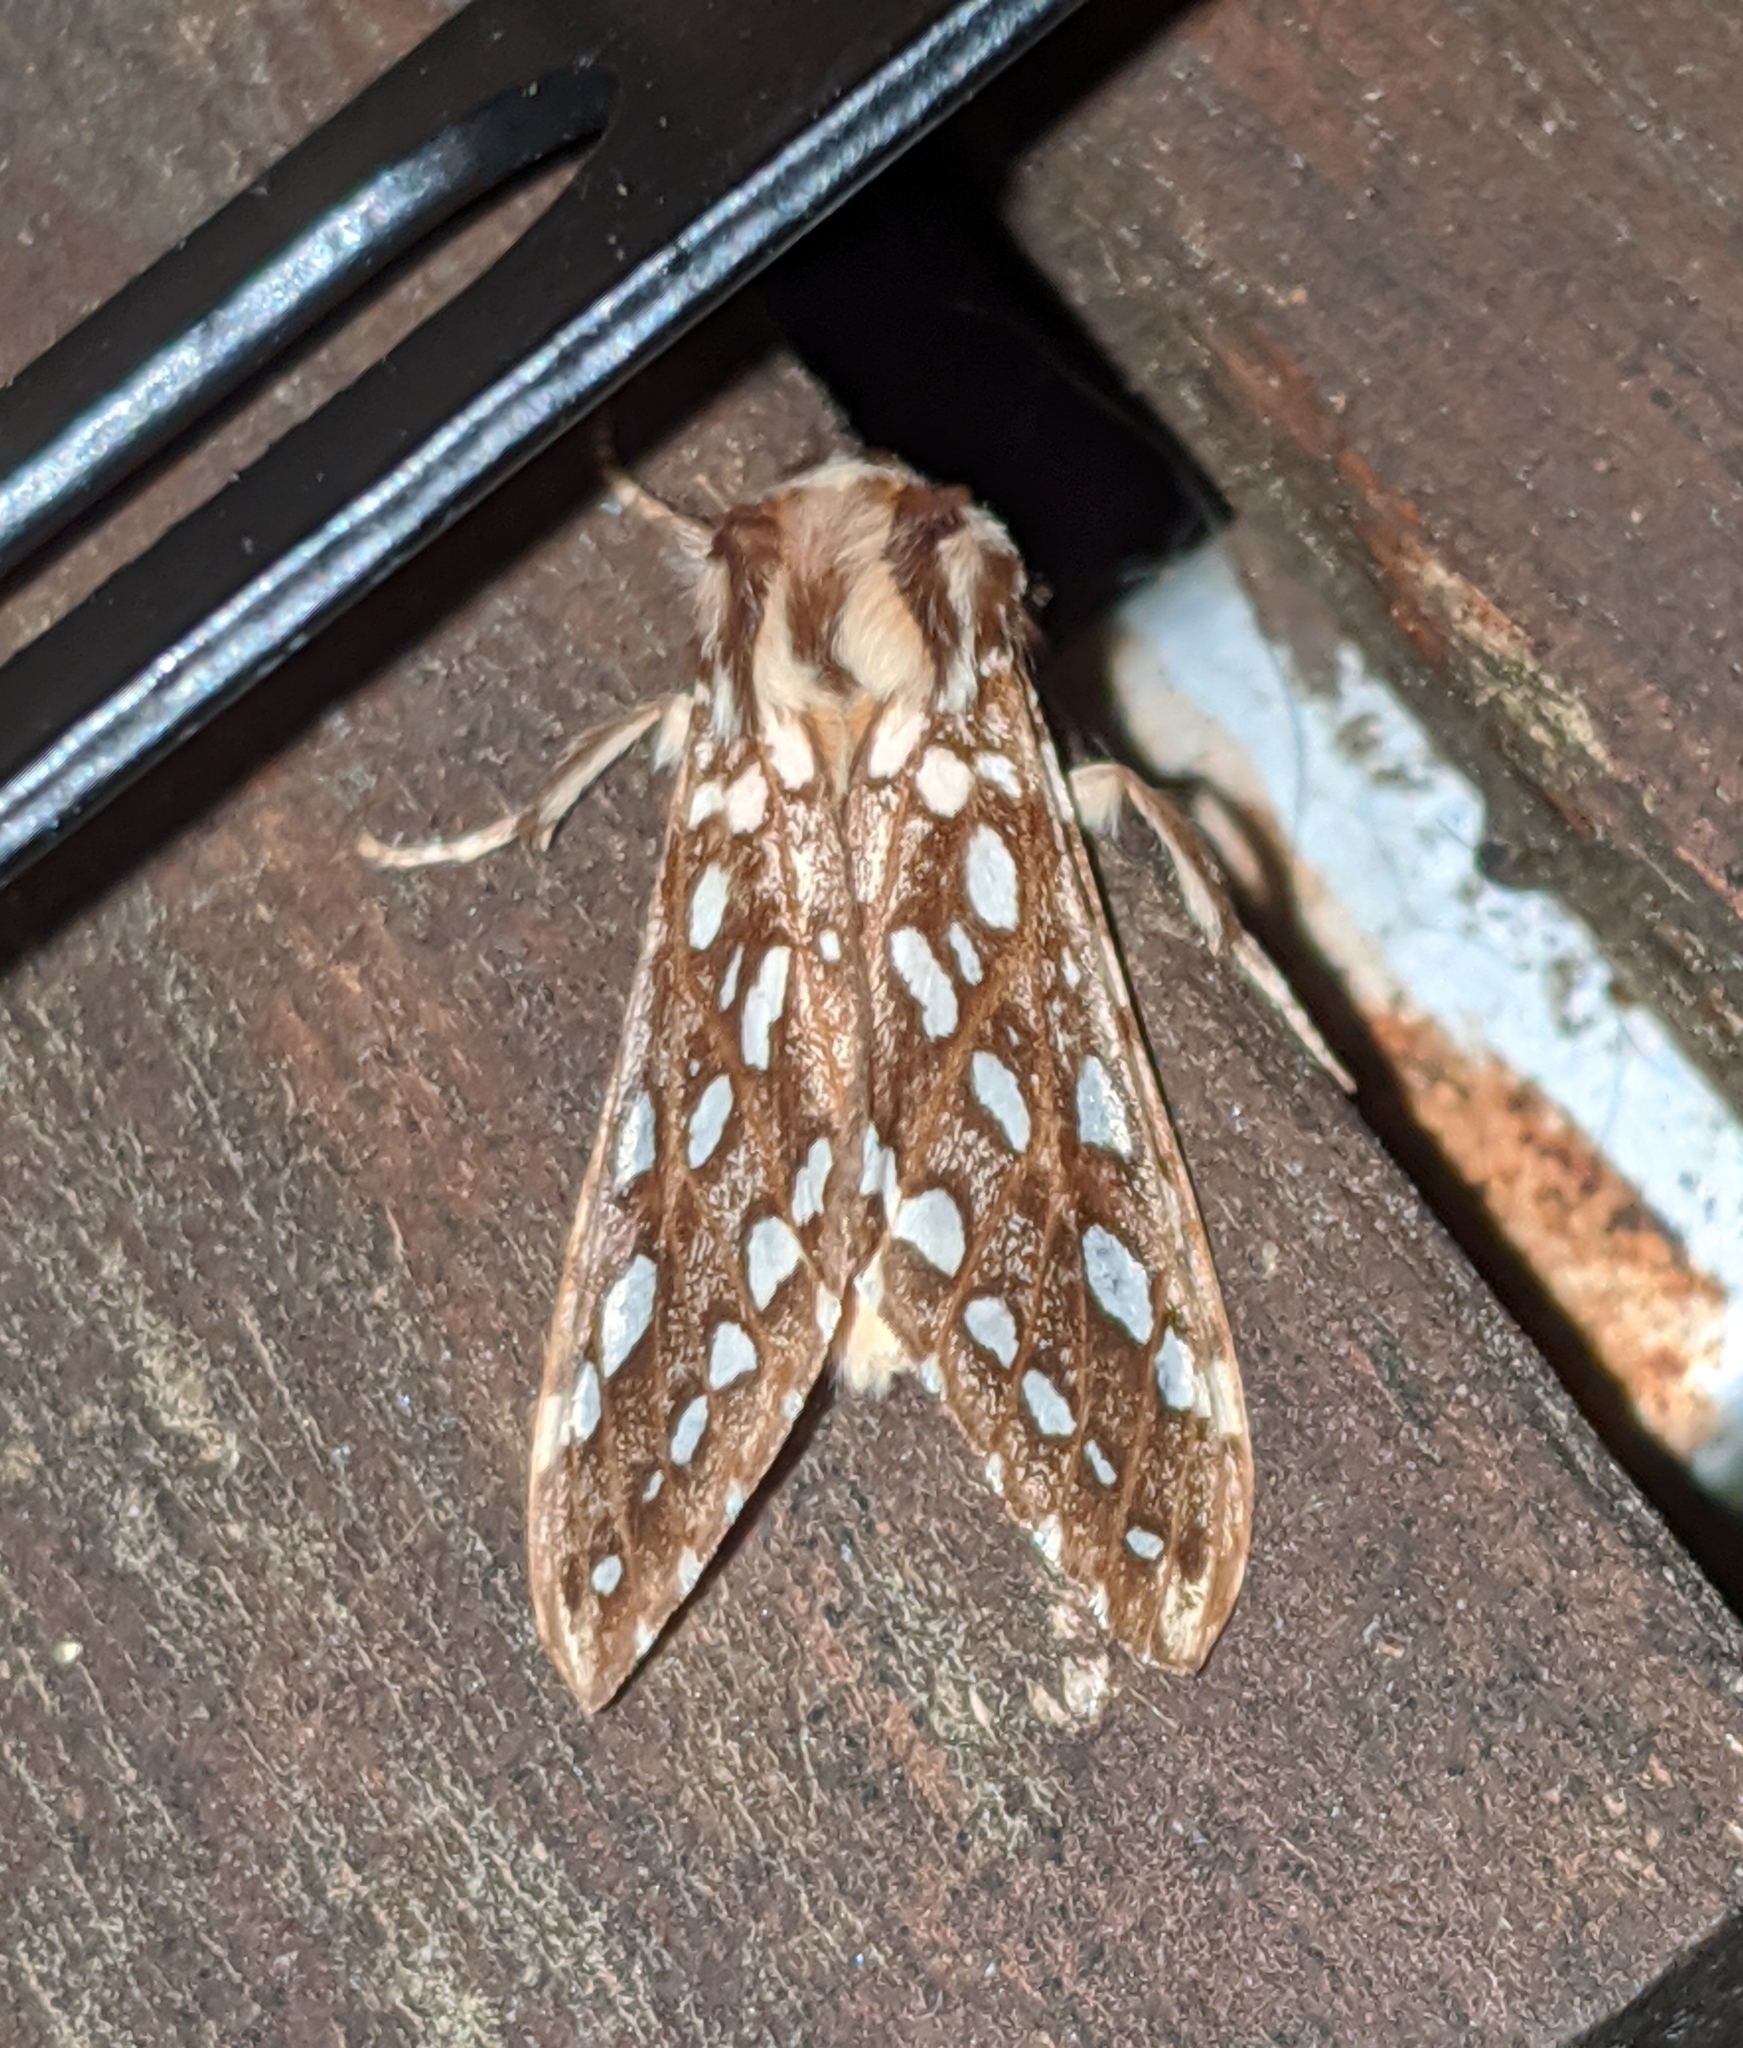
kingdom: Animalia
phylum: Arthropoda
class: Insecta
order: Lepidoptera
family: Erebidae
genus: Lophocampa
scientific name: Lophocampa argentata
